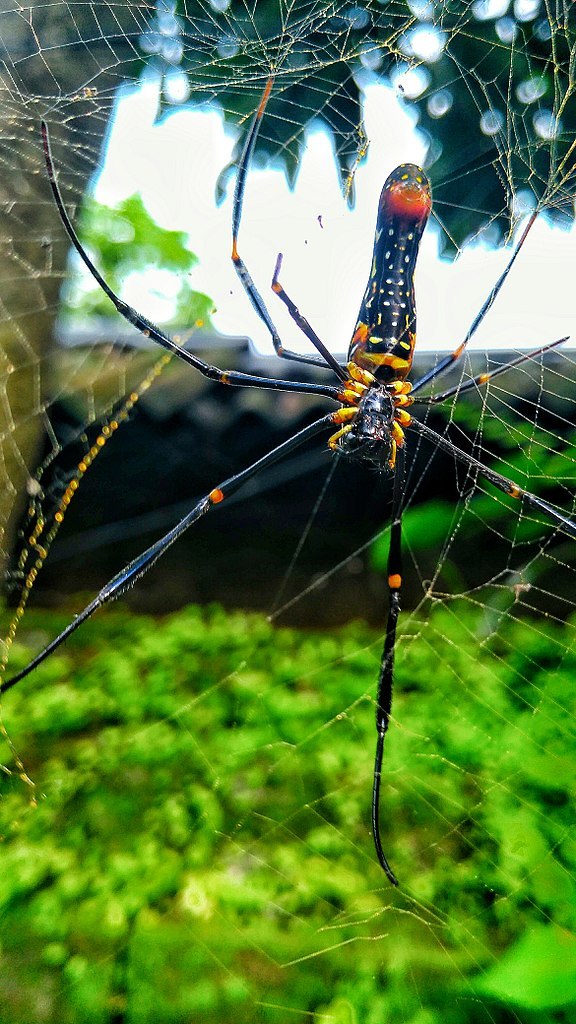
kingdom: Animalia
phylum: Arthropoda
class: Arachnida
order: Araneae
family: Araneidae
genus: Nephila
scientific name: Nephila pilipes
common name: Giant golden orb weaver
